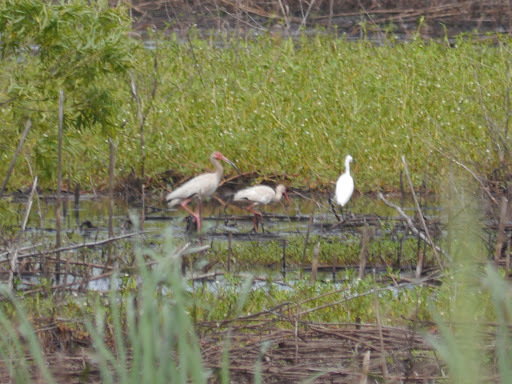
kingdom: Animalia
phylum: Chordata
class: Aves
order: Pelecaniformes
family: Threskiornithidae
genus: Eudocimus
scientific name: Eudocimus albus
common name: White ibis
